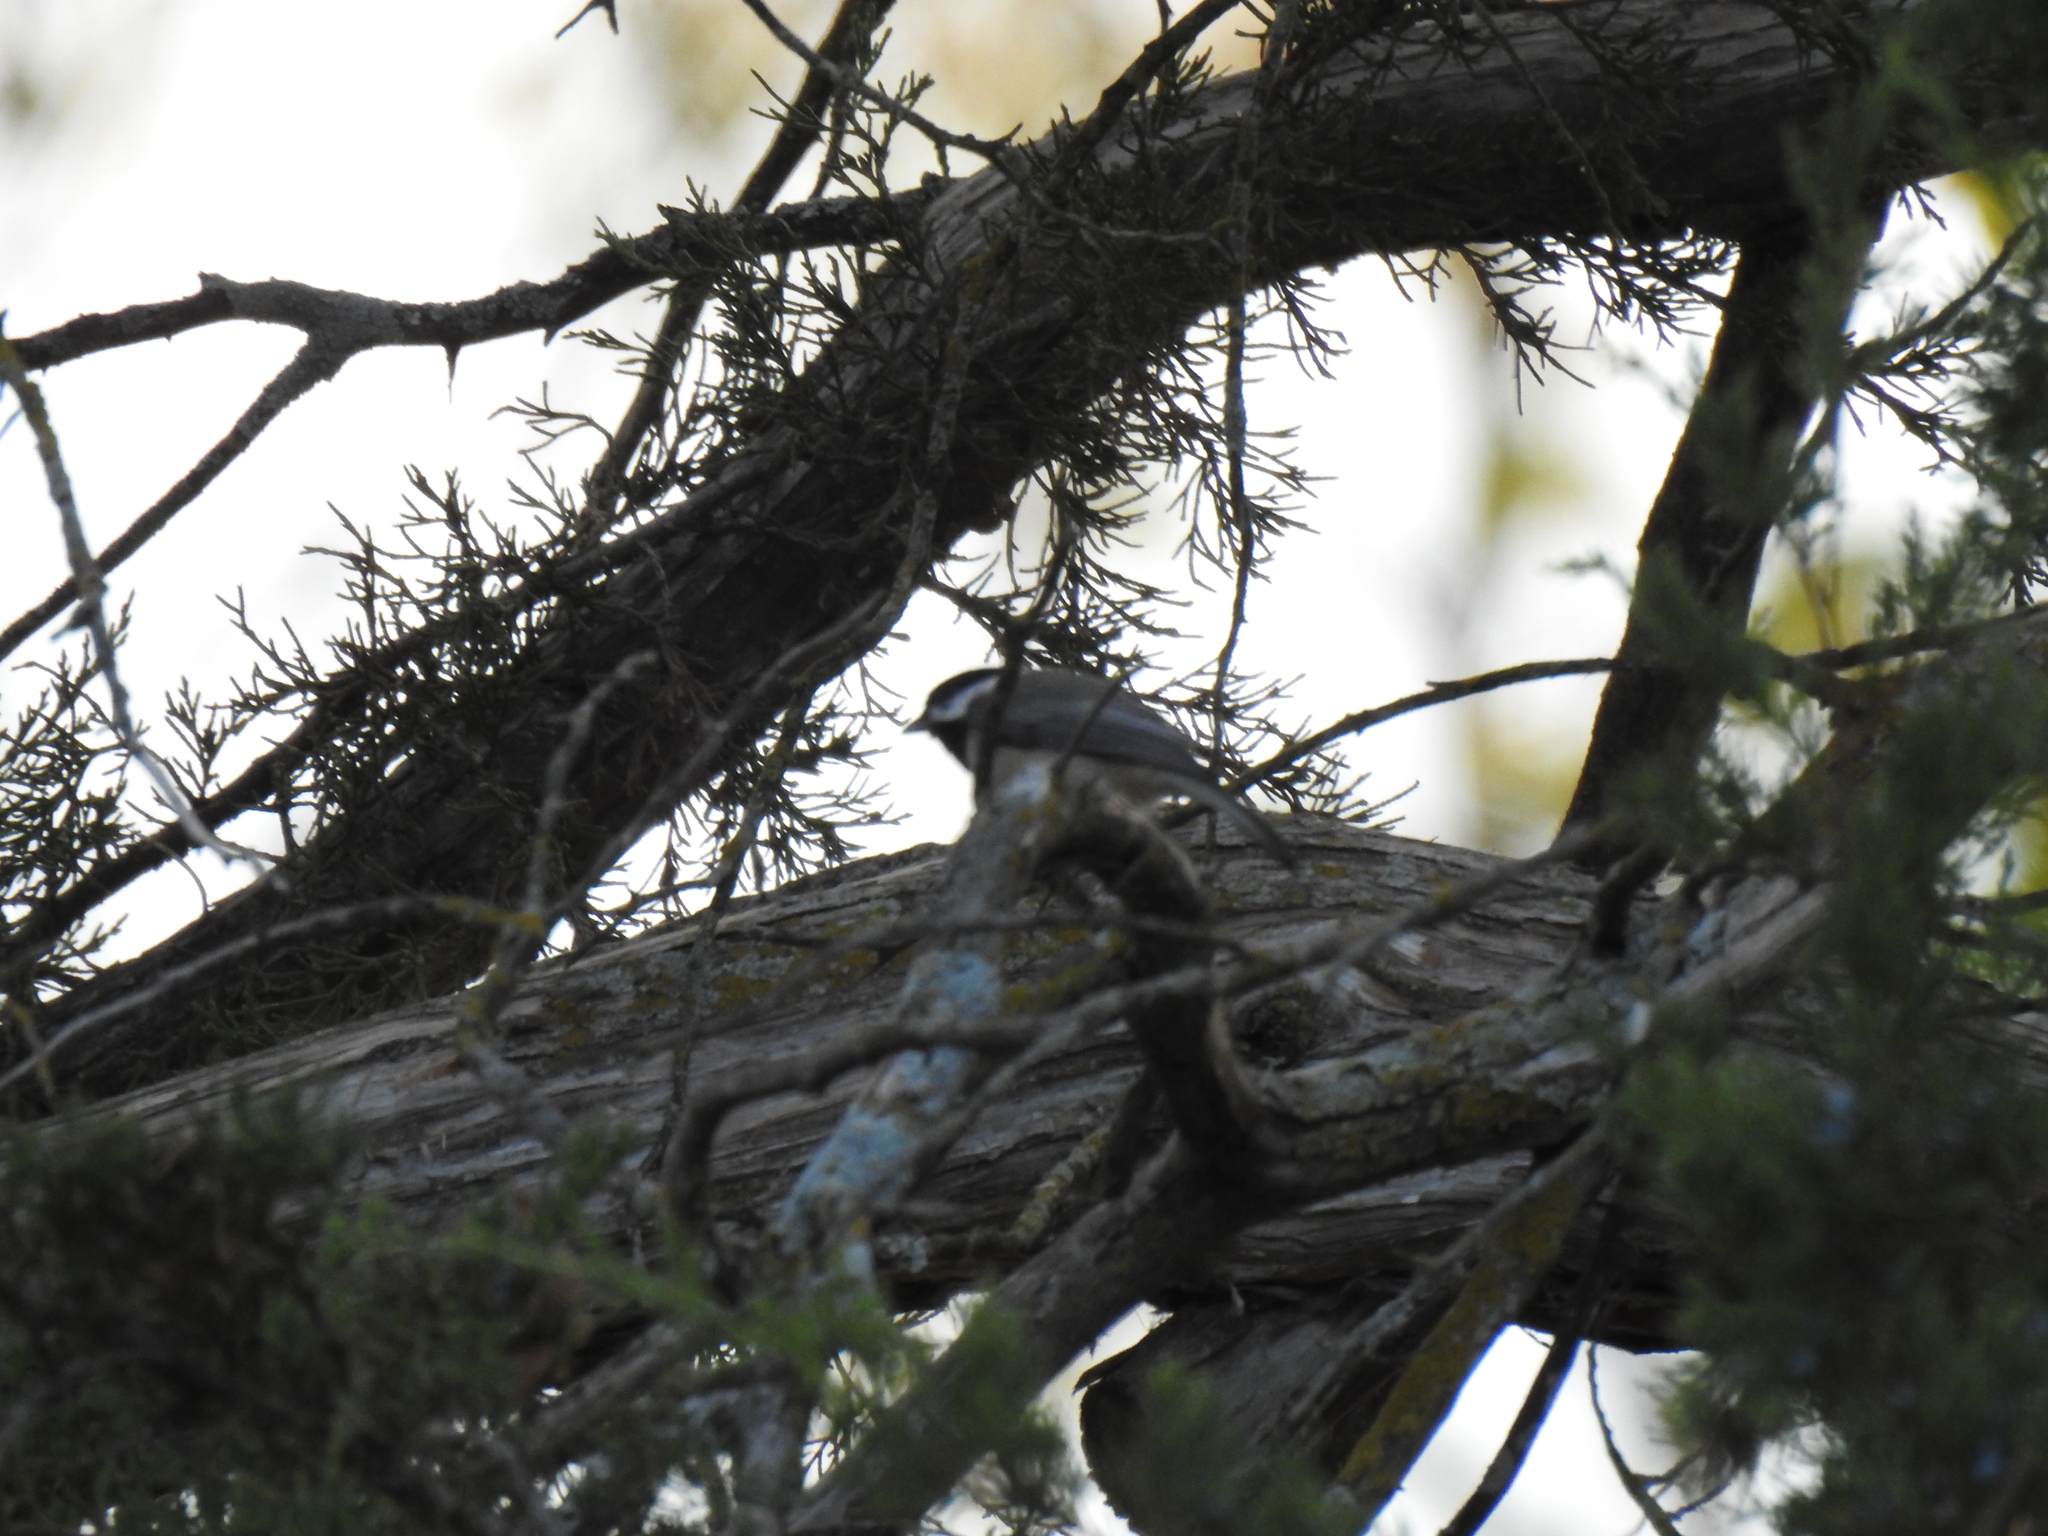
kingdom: Animalia
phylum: Chordata
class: Aves
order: Passeriformes
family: Paridae
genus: Poecile
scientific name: Poecile carolinensis
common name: Carolina chickadee
